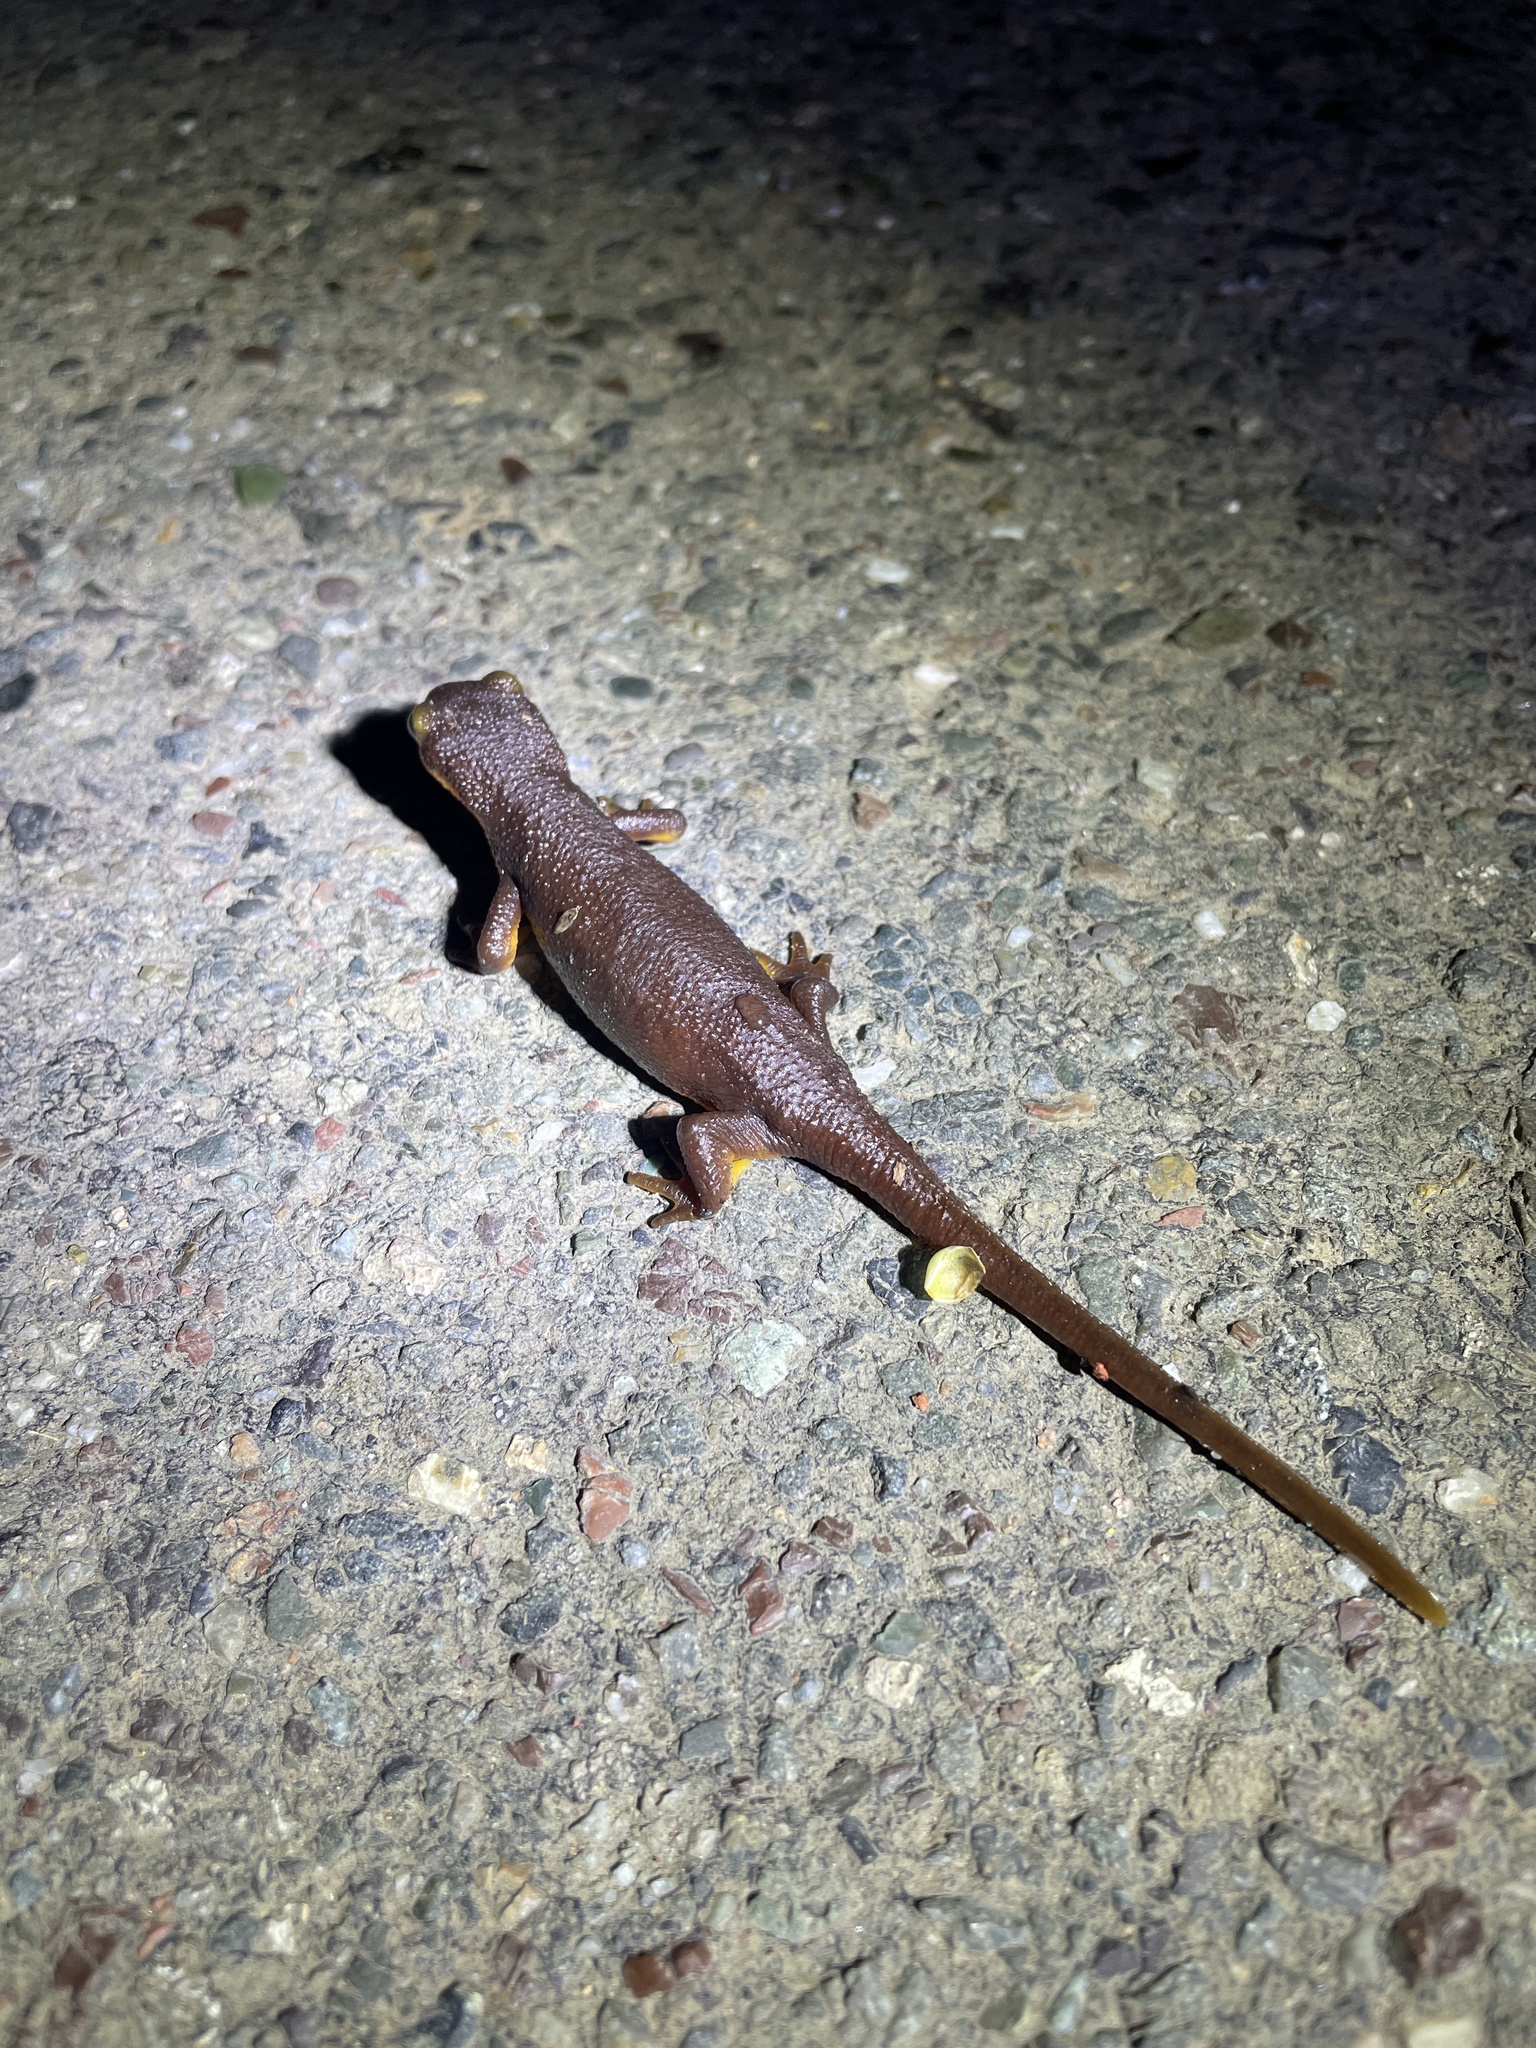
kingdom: Animalia
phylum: Chordata
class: Amphibia
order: Caudata
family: Salamandridae
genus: Taricha
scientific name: Taricha torosa
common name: California newt
